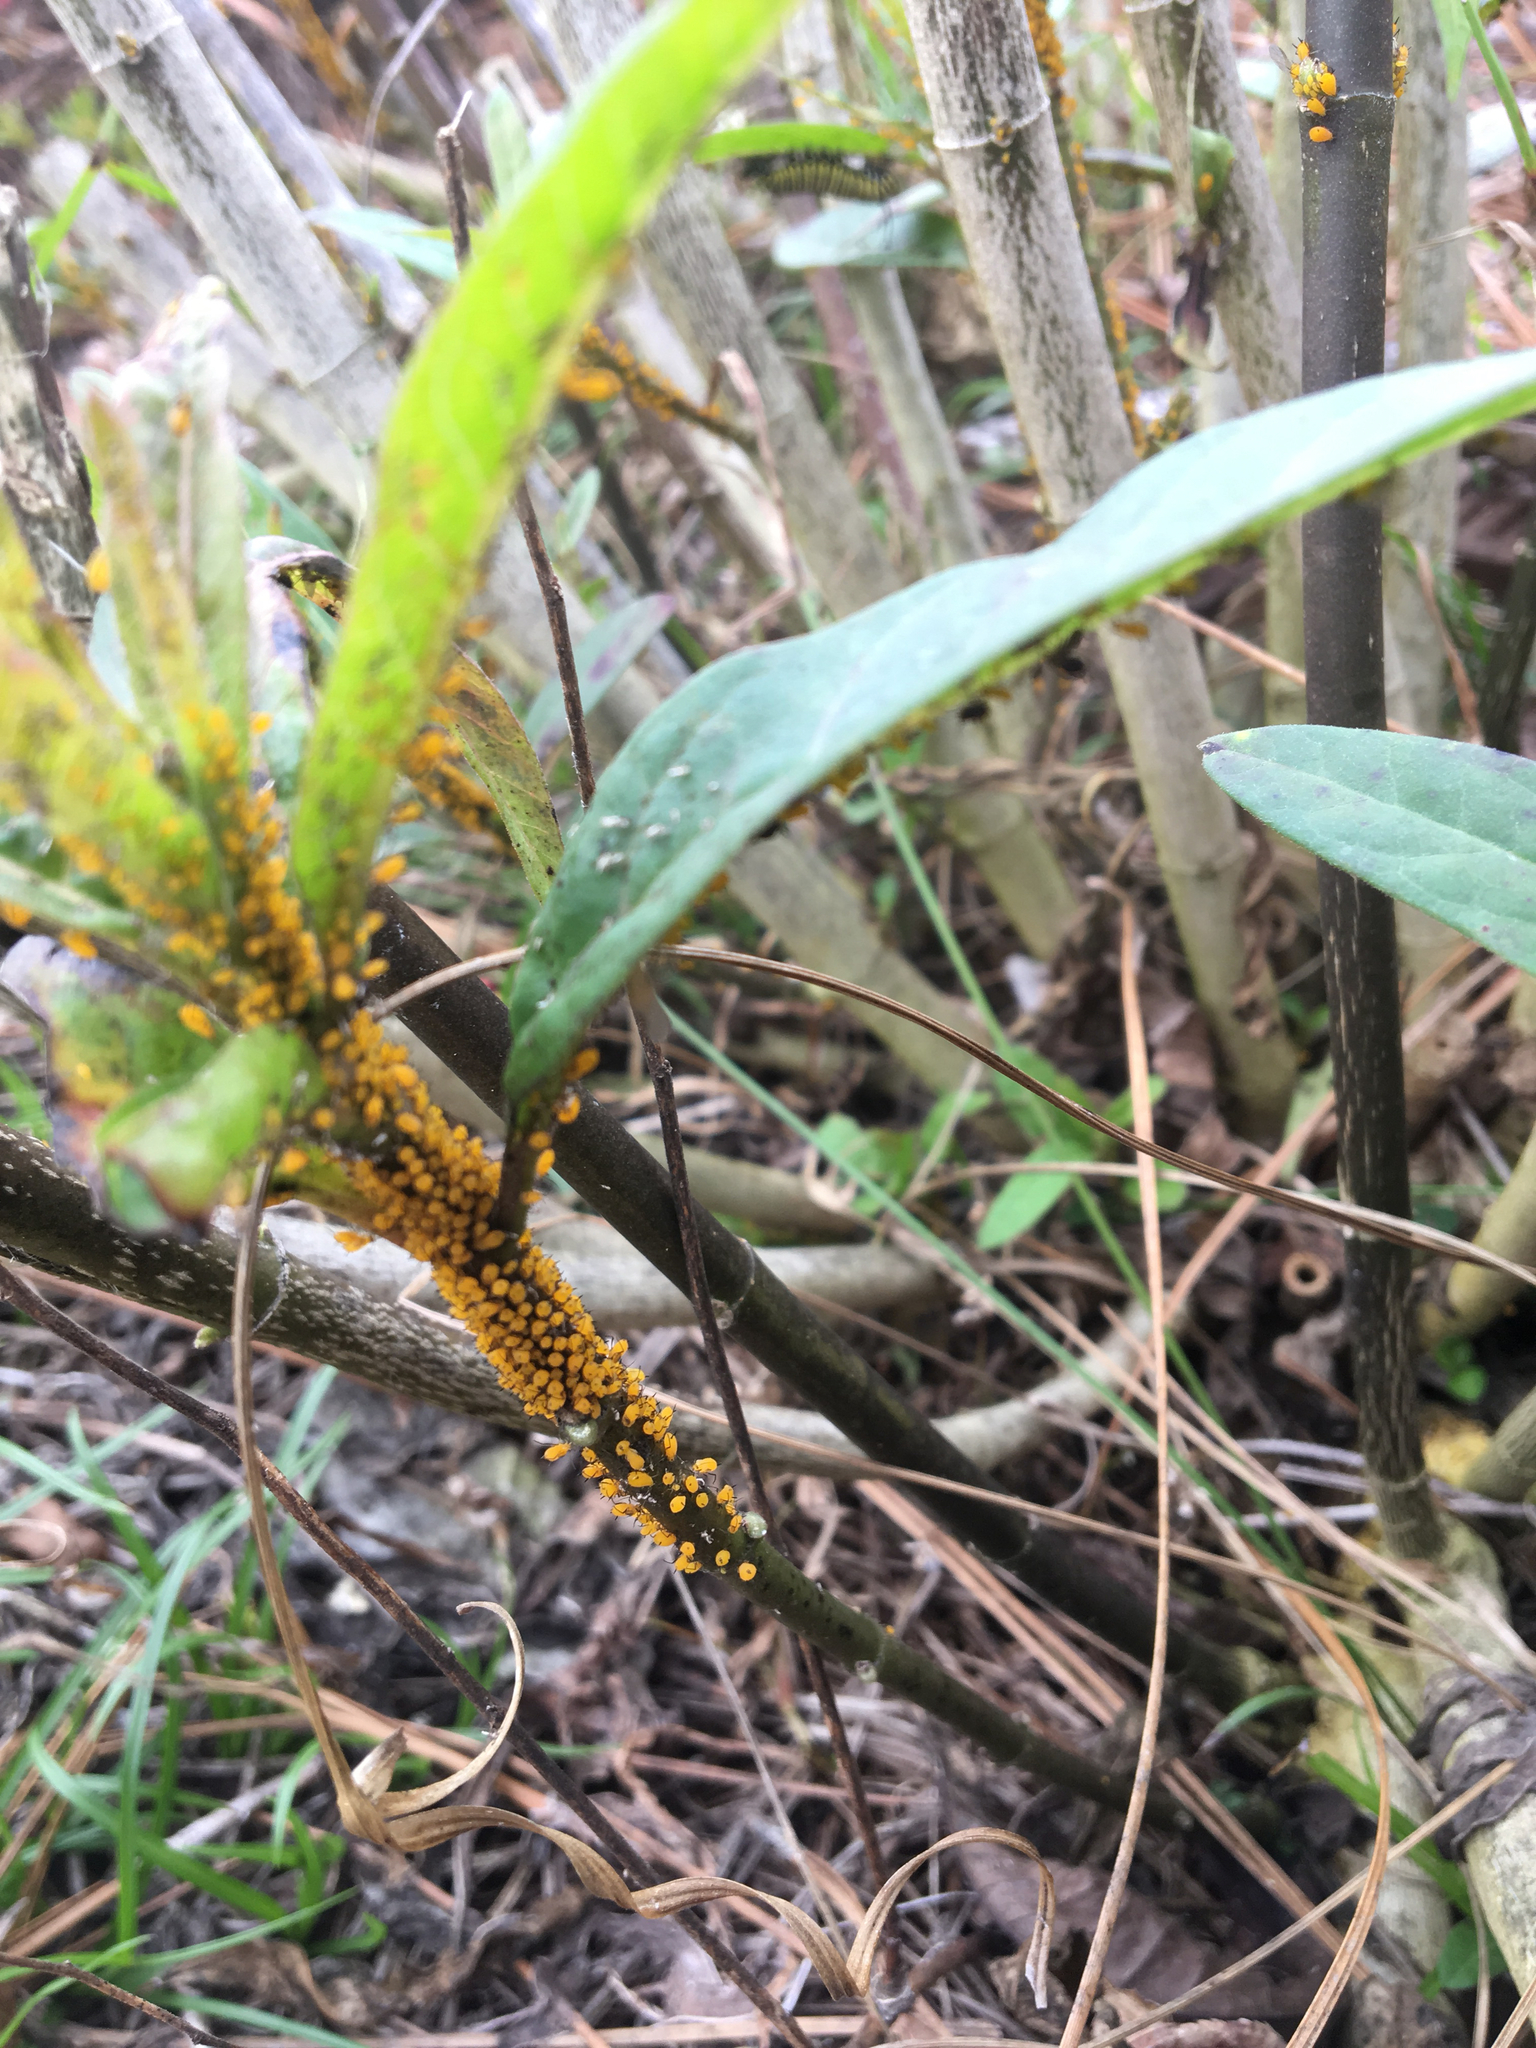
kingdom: Animalia
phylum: Arthropoda
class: Insecta
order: Hemiptera
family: Aphididae
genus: Aphis
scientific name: Aphis nerii
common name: Oleander aphid
